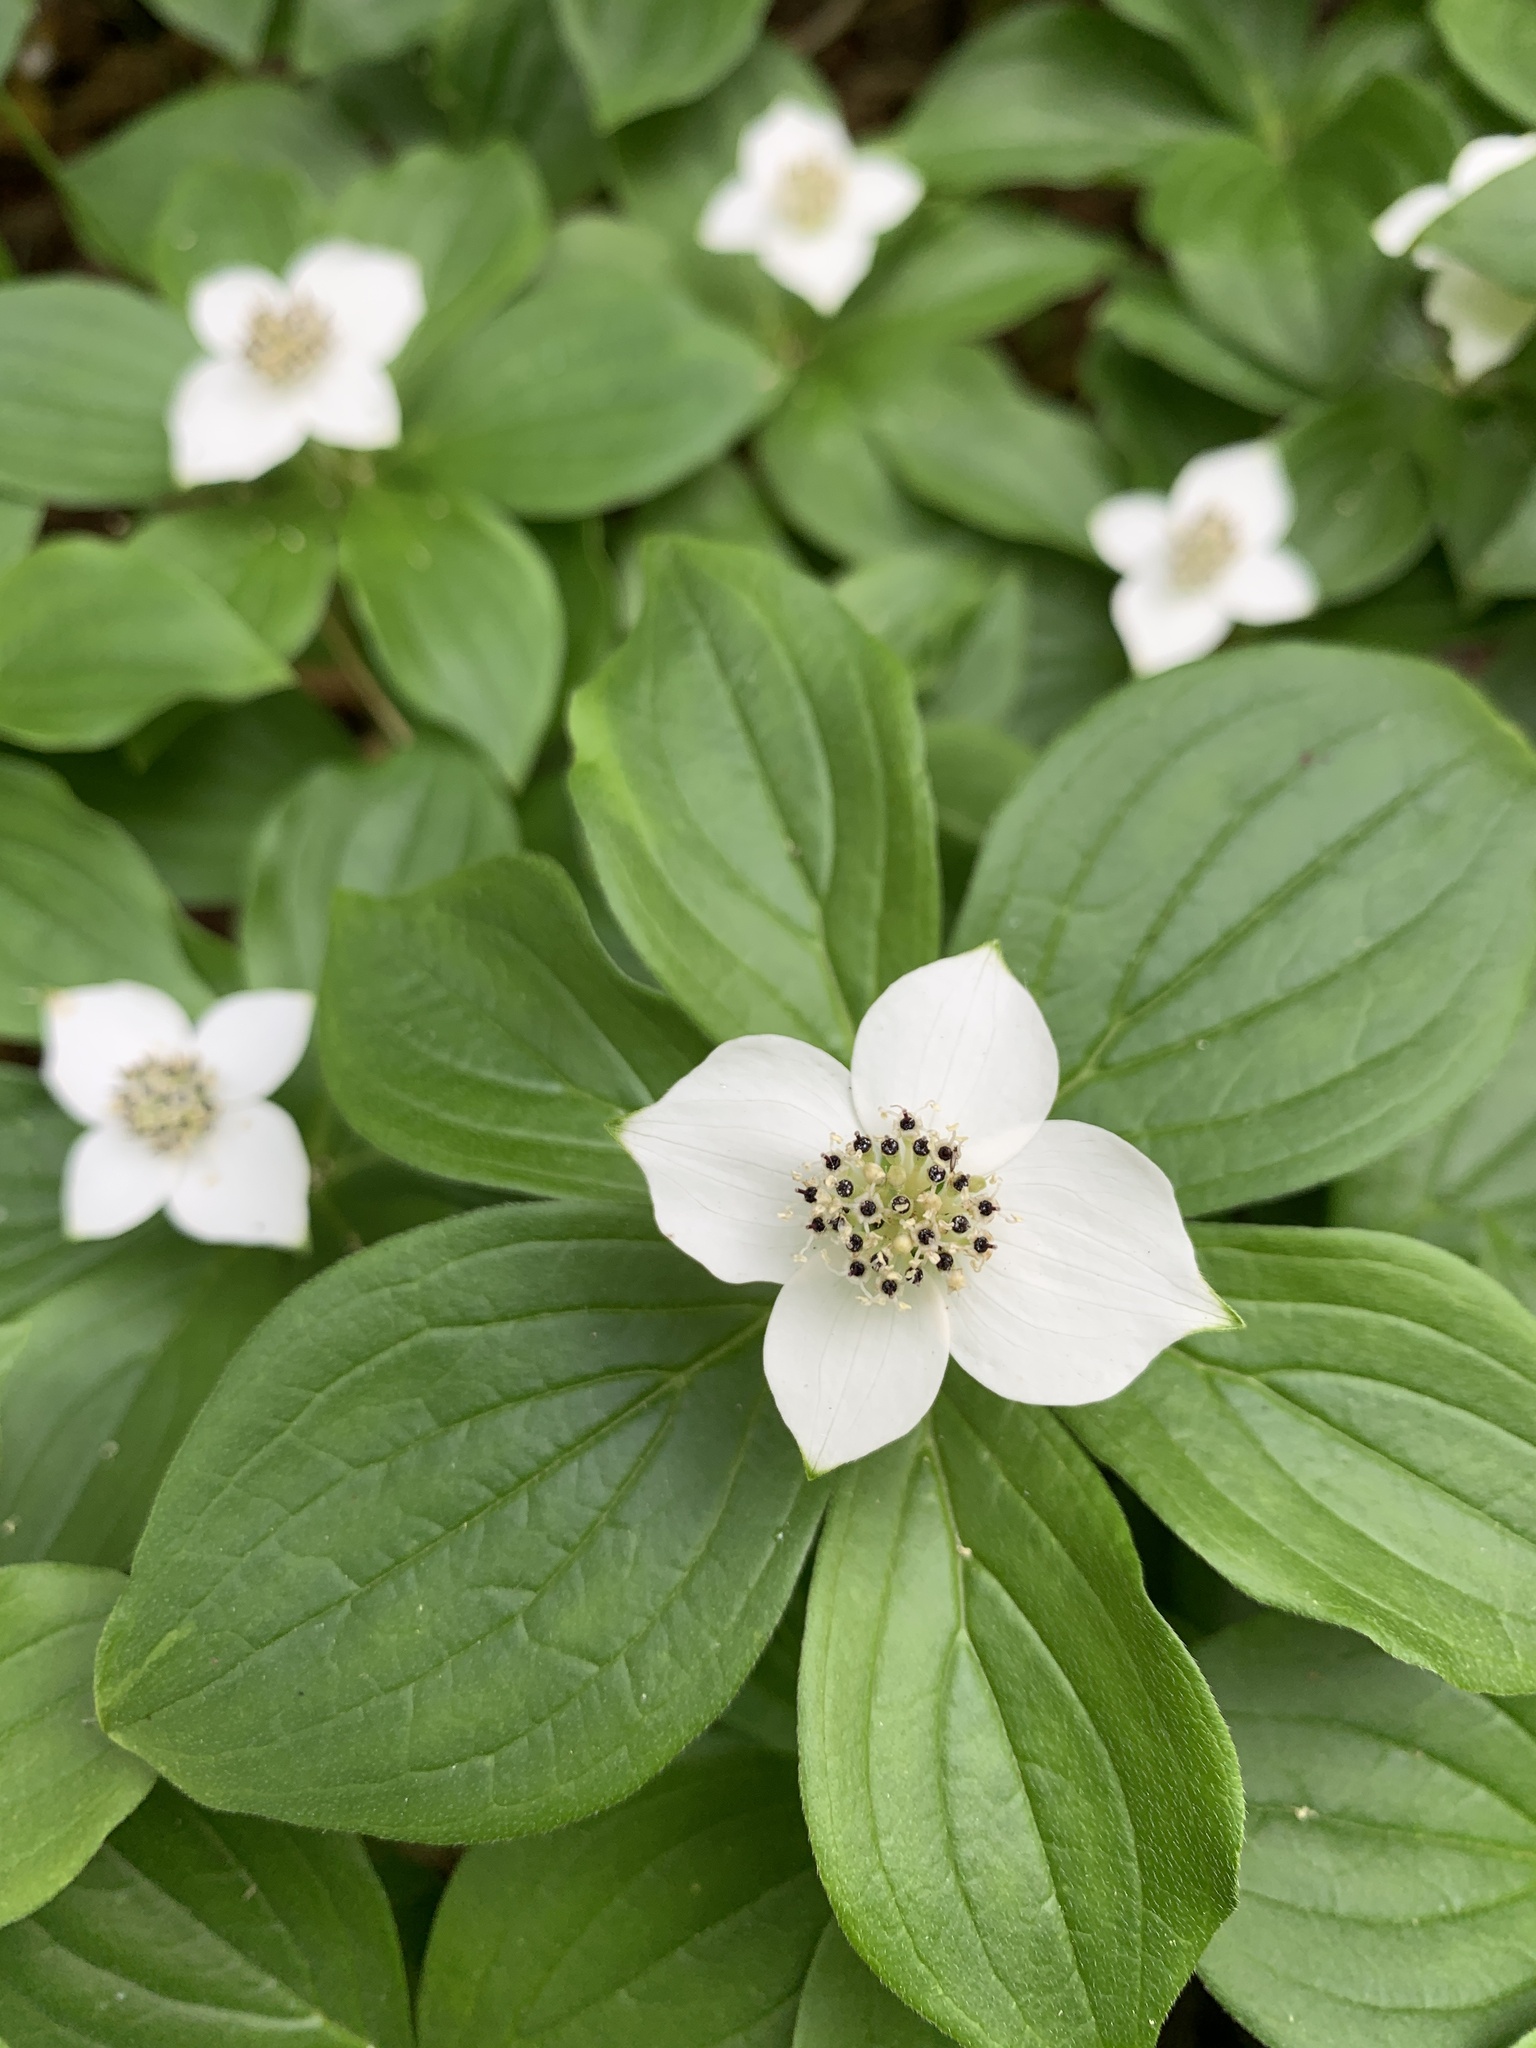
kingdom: Plantae
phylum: Tracheophyta
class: Magnoliopsida
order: Cornales
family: Cornaceae
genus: Cornus
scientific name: Cornus canadensis
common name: Creeping dogwood
